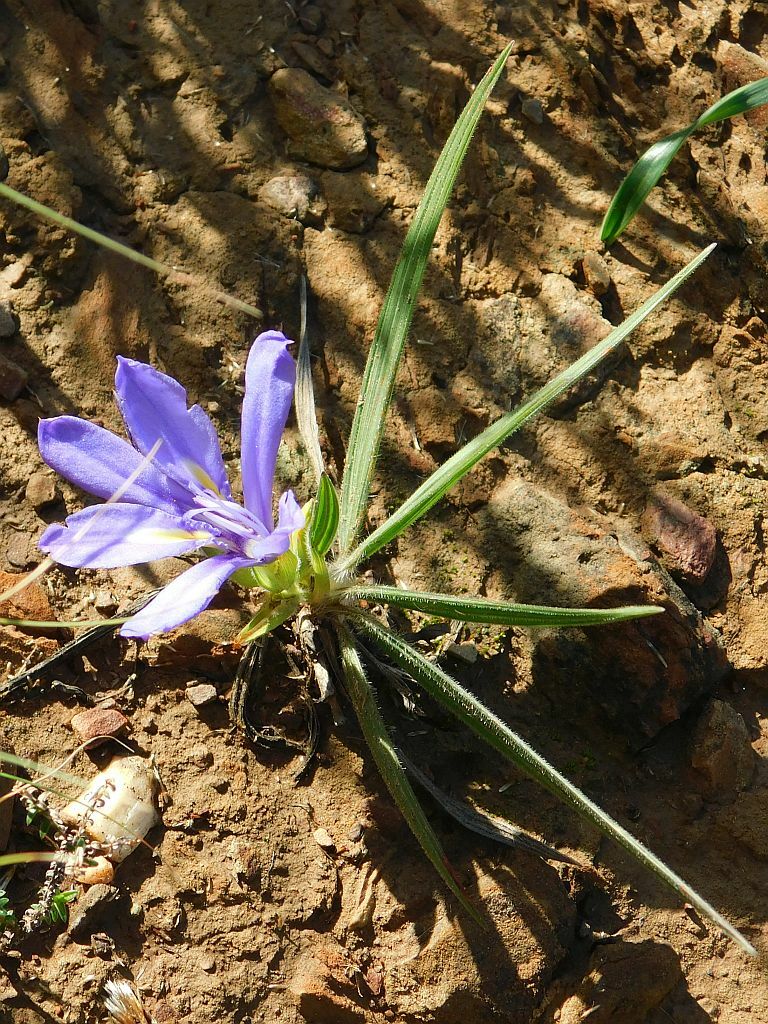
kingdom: Plantae
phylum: Tracheophyta
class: Liliopsida
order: Asparagales
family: Iridaceae
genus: Babiana
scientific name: Babiana ambigua
